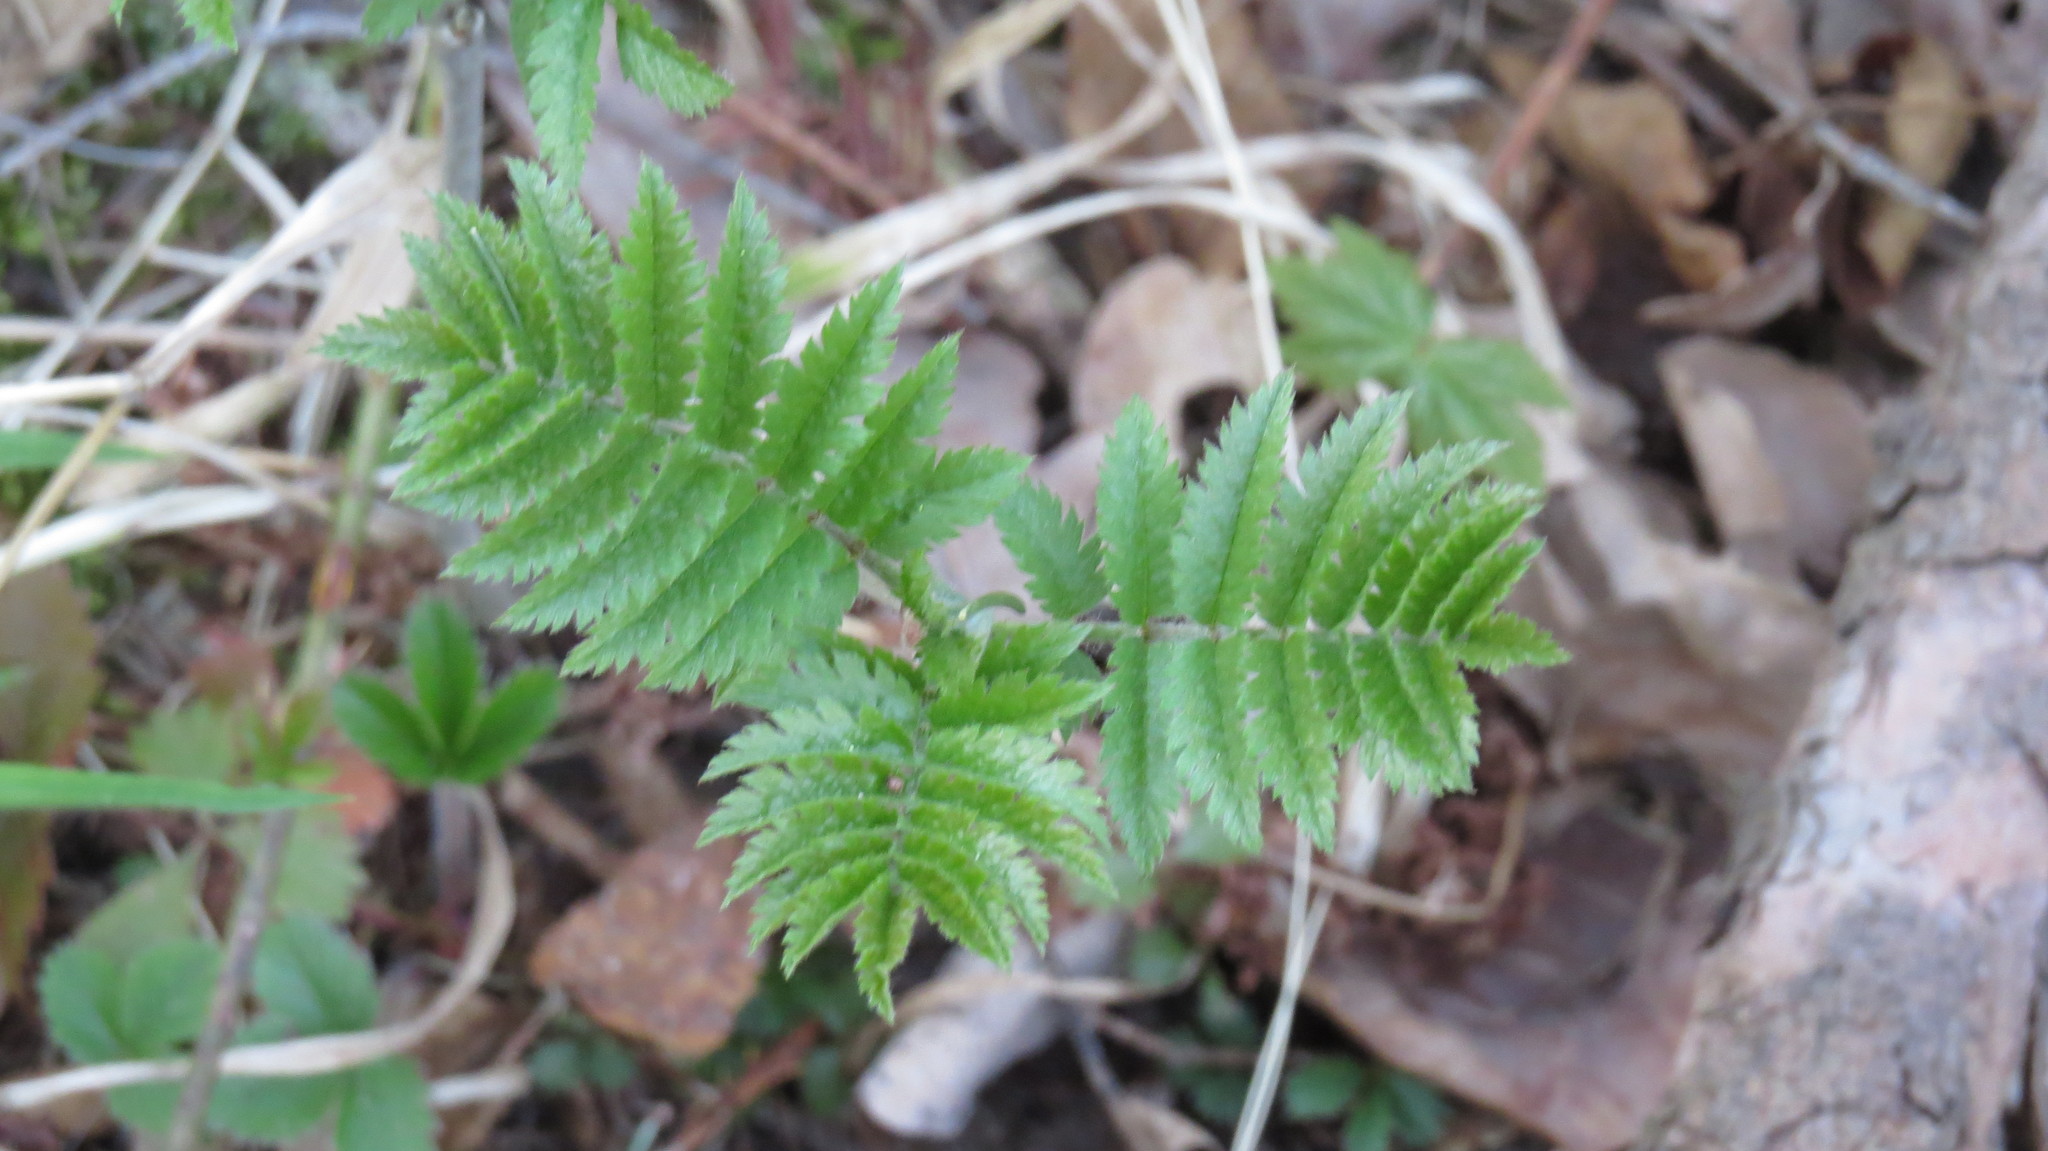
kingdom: Plantae
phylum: Tracheophyta
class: Magnoliopsida
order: Rosales
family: Rosaceae
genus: Sorbus
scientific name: Sorbus aucuparia
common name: Rowan
